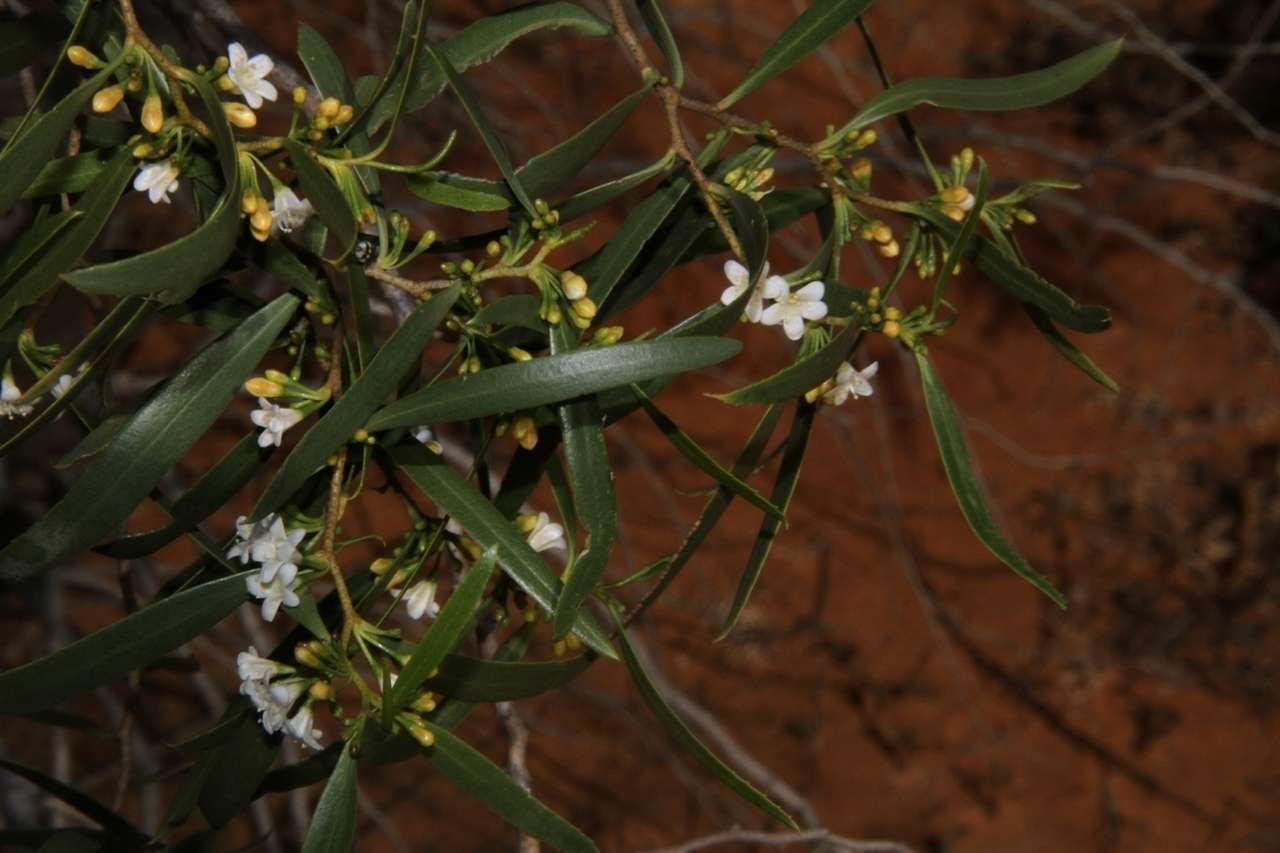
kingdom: Plantae
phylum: Tracheophyta
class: Magnoliopsida
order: Lamiales
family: Scrophulariaceae
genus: Myoporum
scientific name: Myoporum platycarpum
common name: Sugartree
